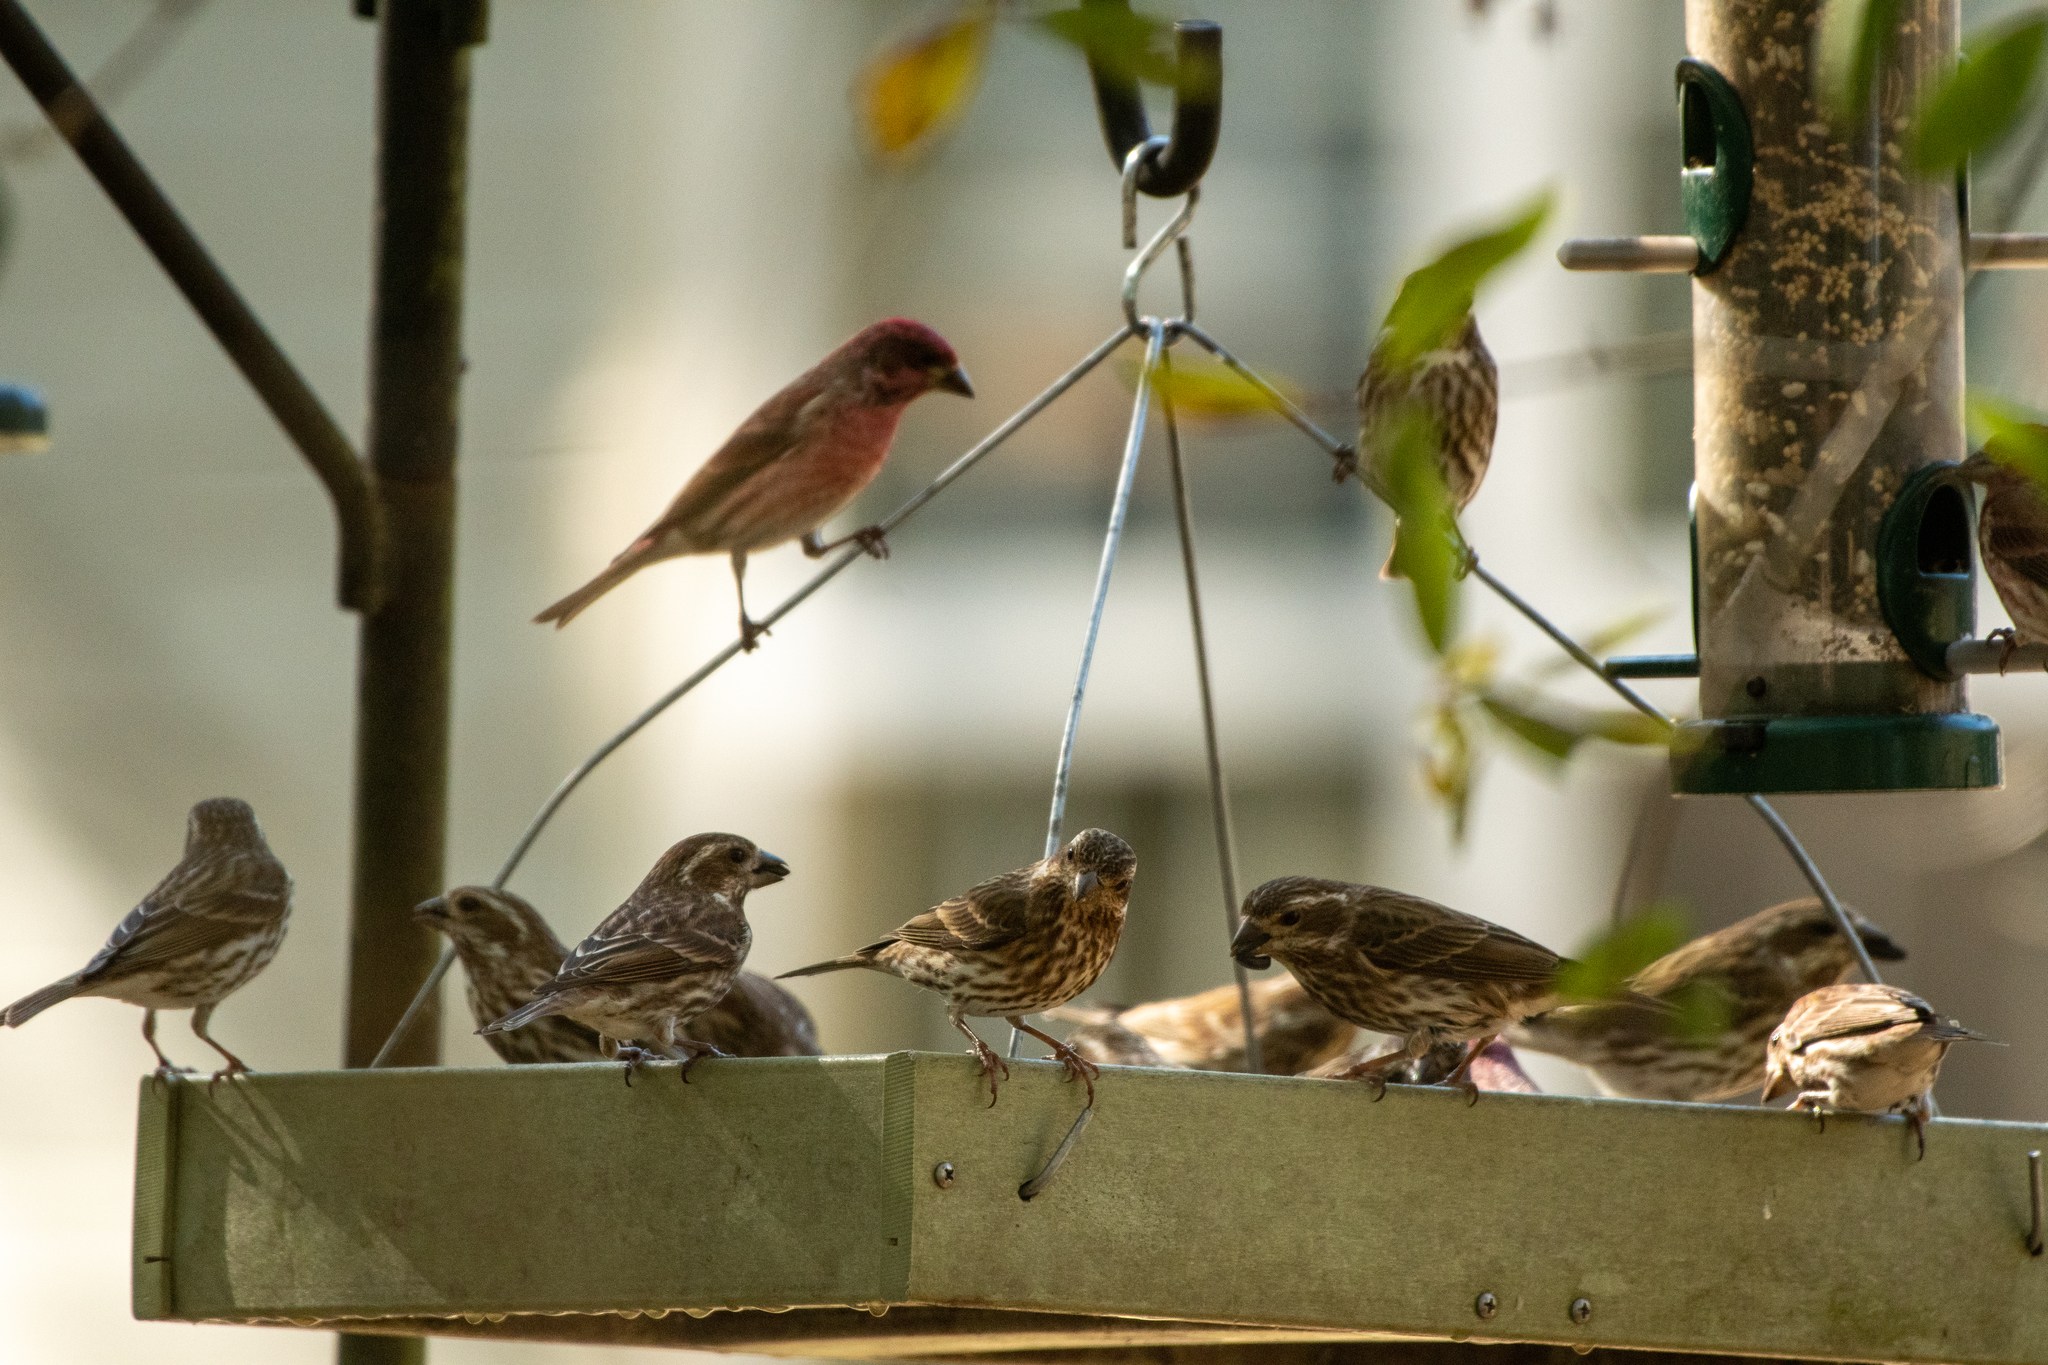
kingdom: Animalia
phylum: Chordata
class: Aves
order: Passeriformes
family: Fringillidae
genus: Haemorhous
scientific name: Haemorhous purpureus
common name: Purple finch
